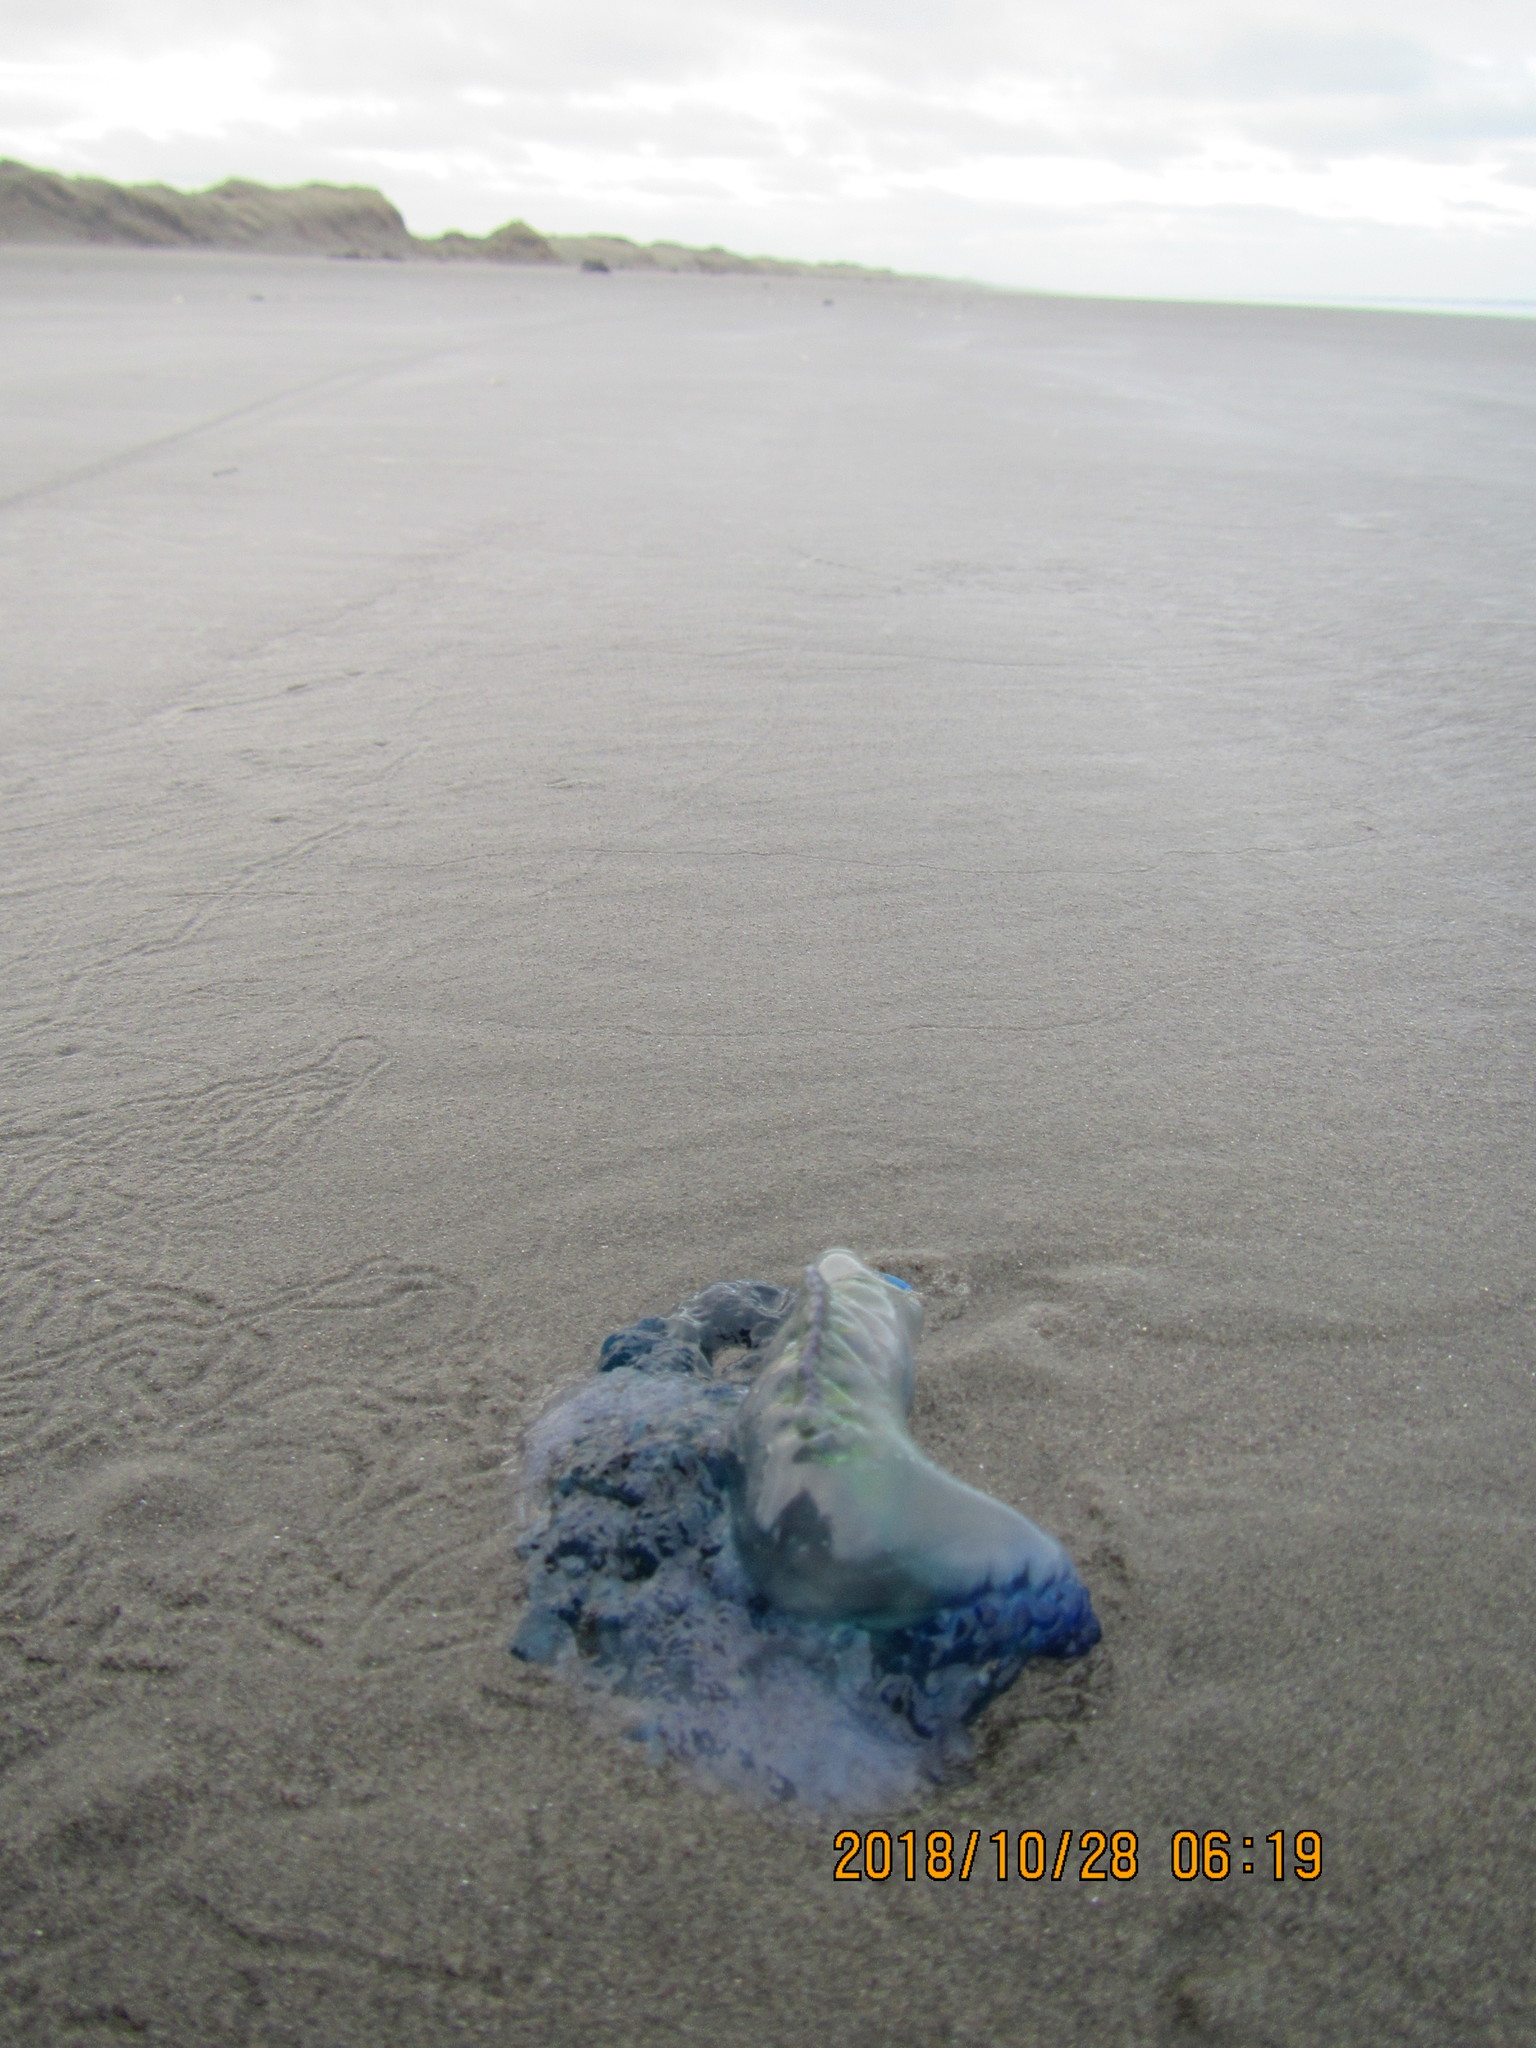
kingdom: Animalia
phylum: Cnidaria
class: Hydrozoa
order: Siphonophorae
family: Physaliidae
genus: Physalia
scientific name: Physalia physalis
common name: Portuguese man-of-war
